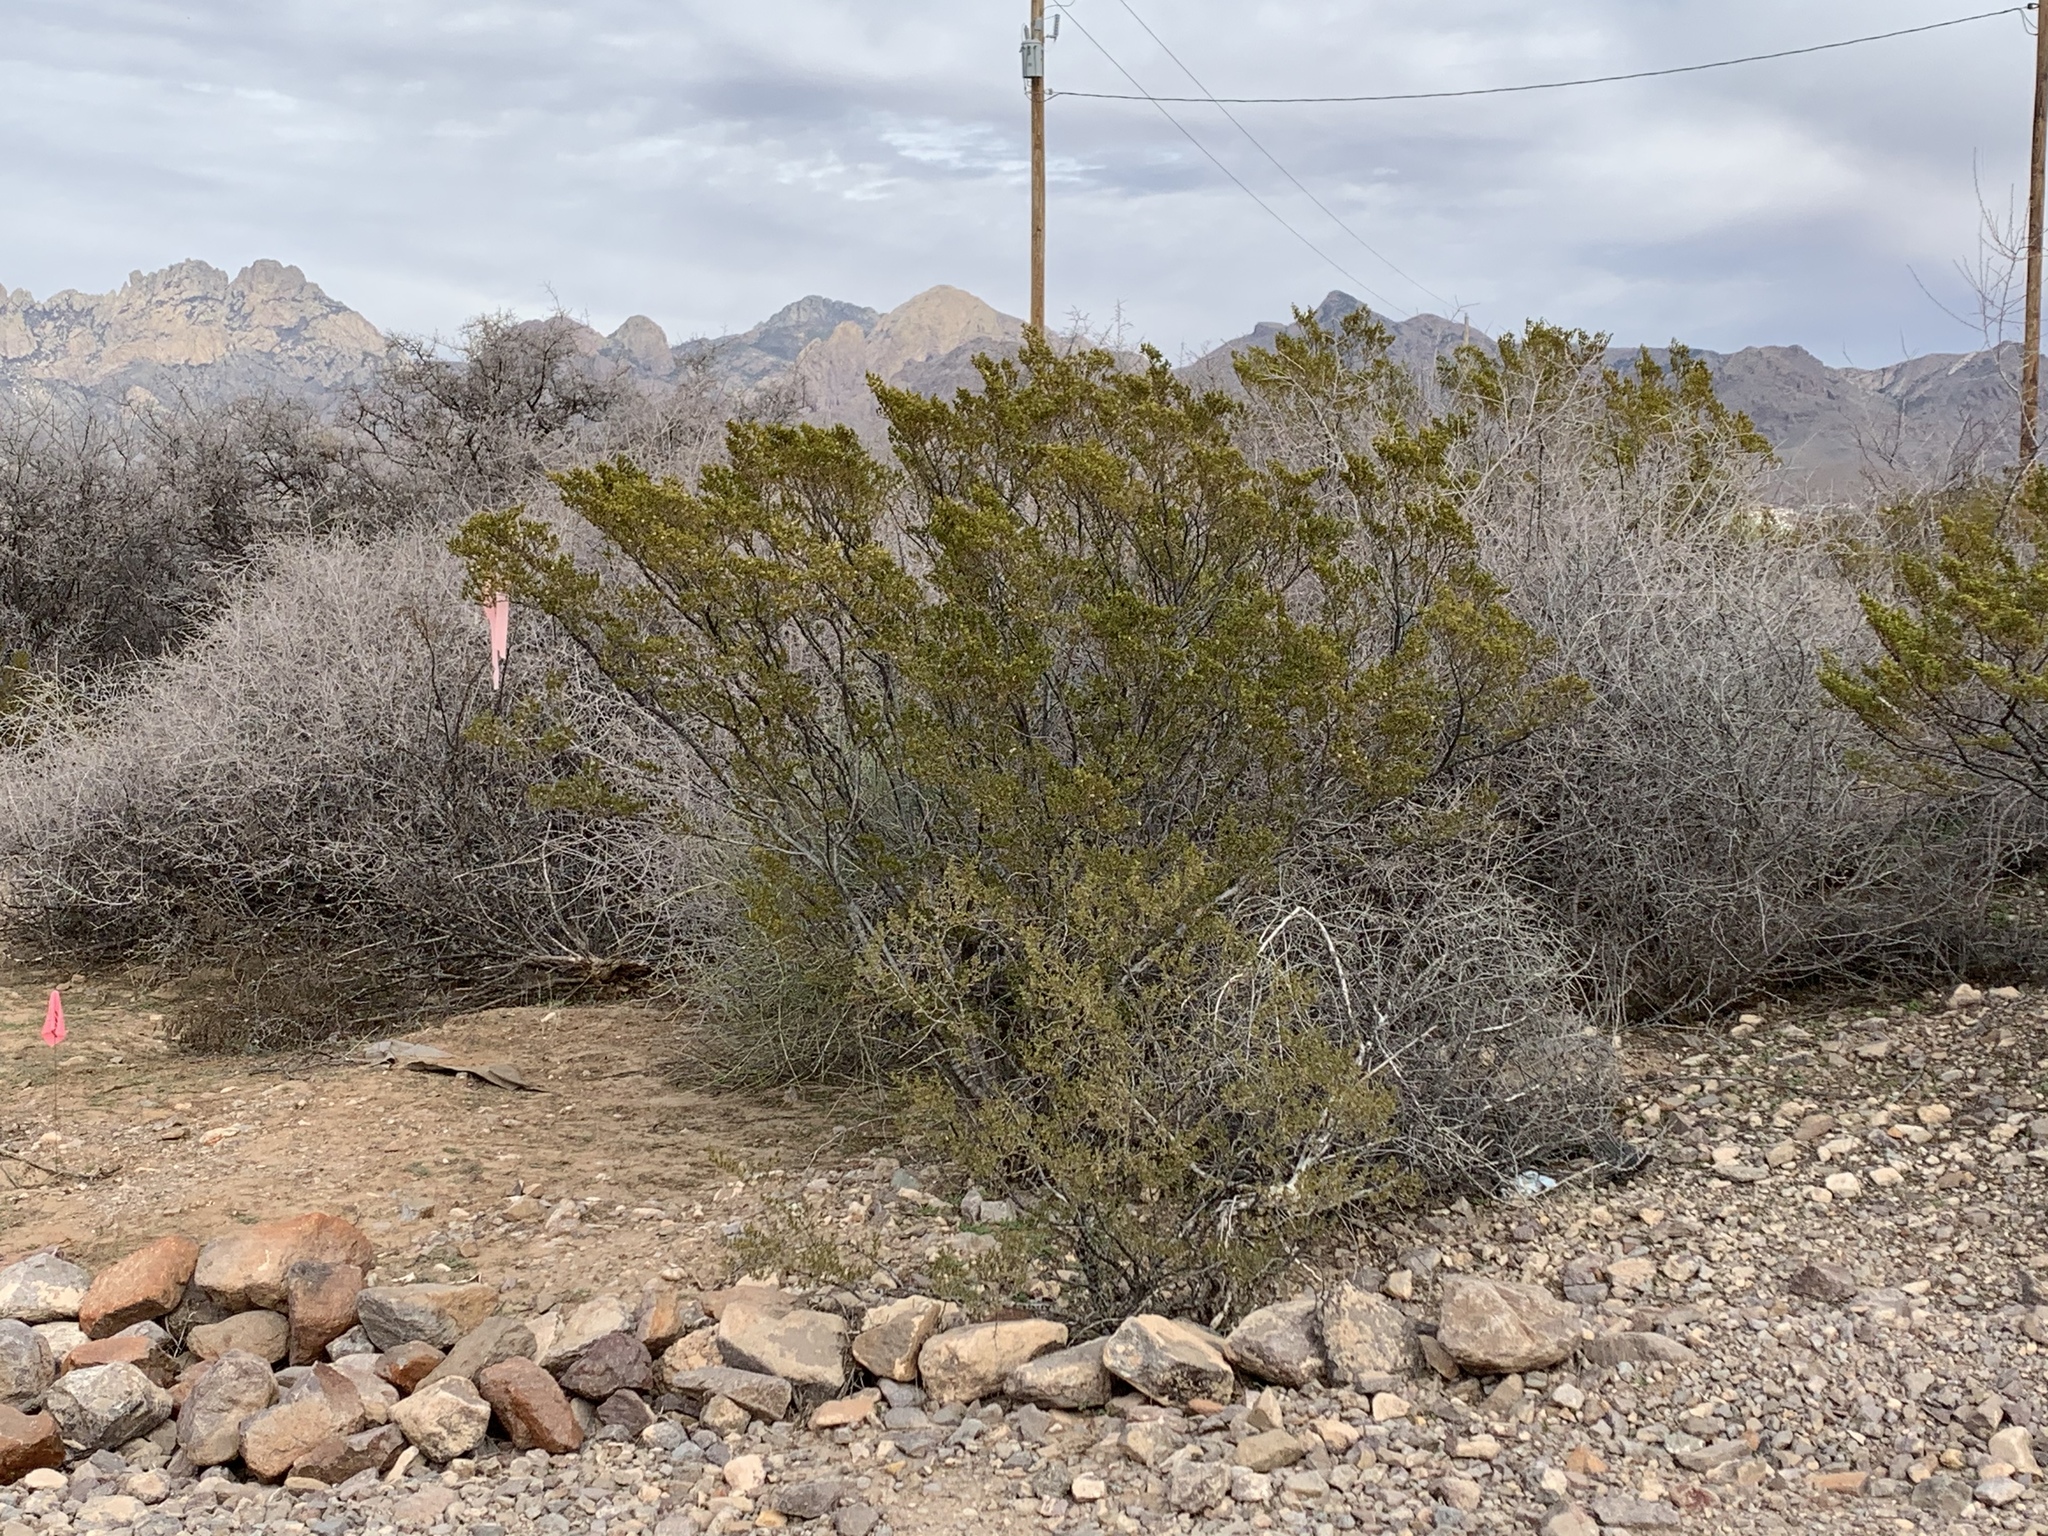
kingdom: Plantae
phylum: Tracheophyta
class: Magnoliopsida
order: Zygophyllales
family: Zygophyllaceae
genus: Larrea
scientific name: Larrea tridentata
